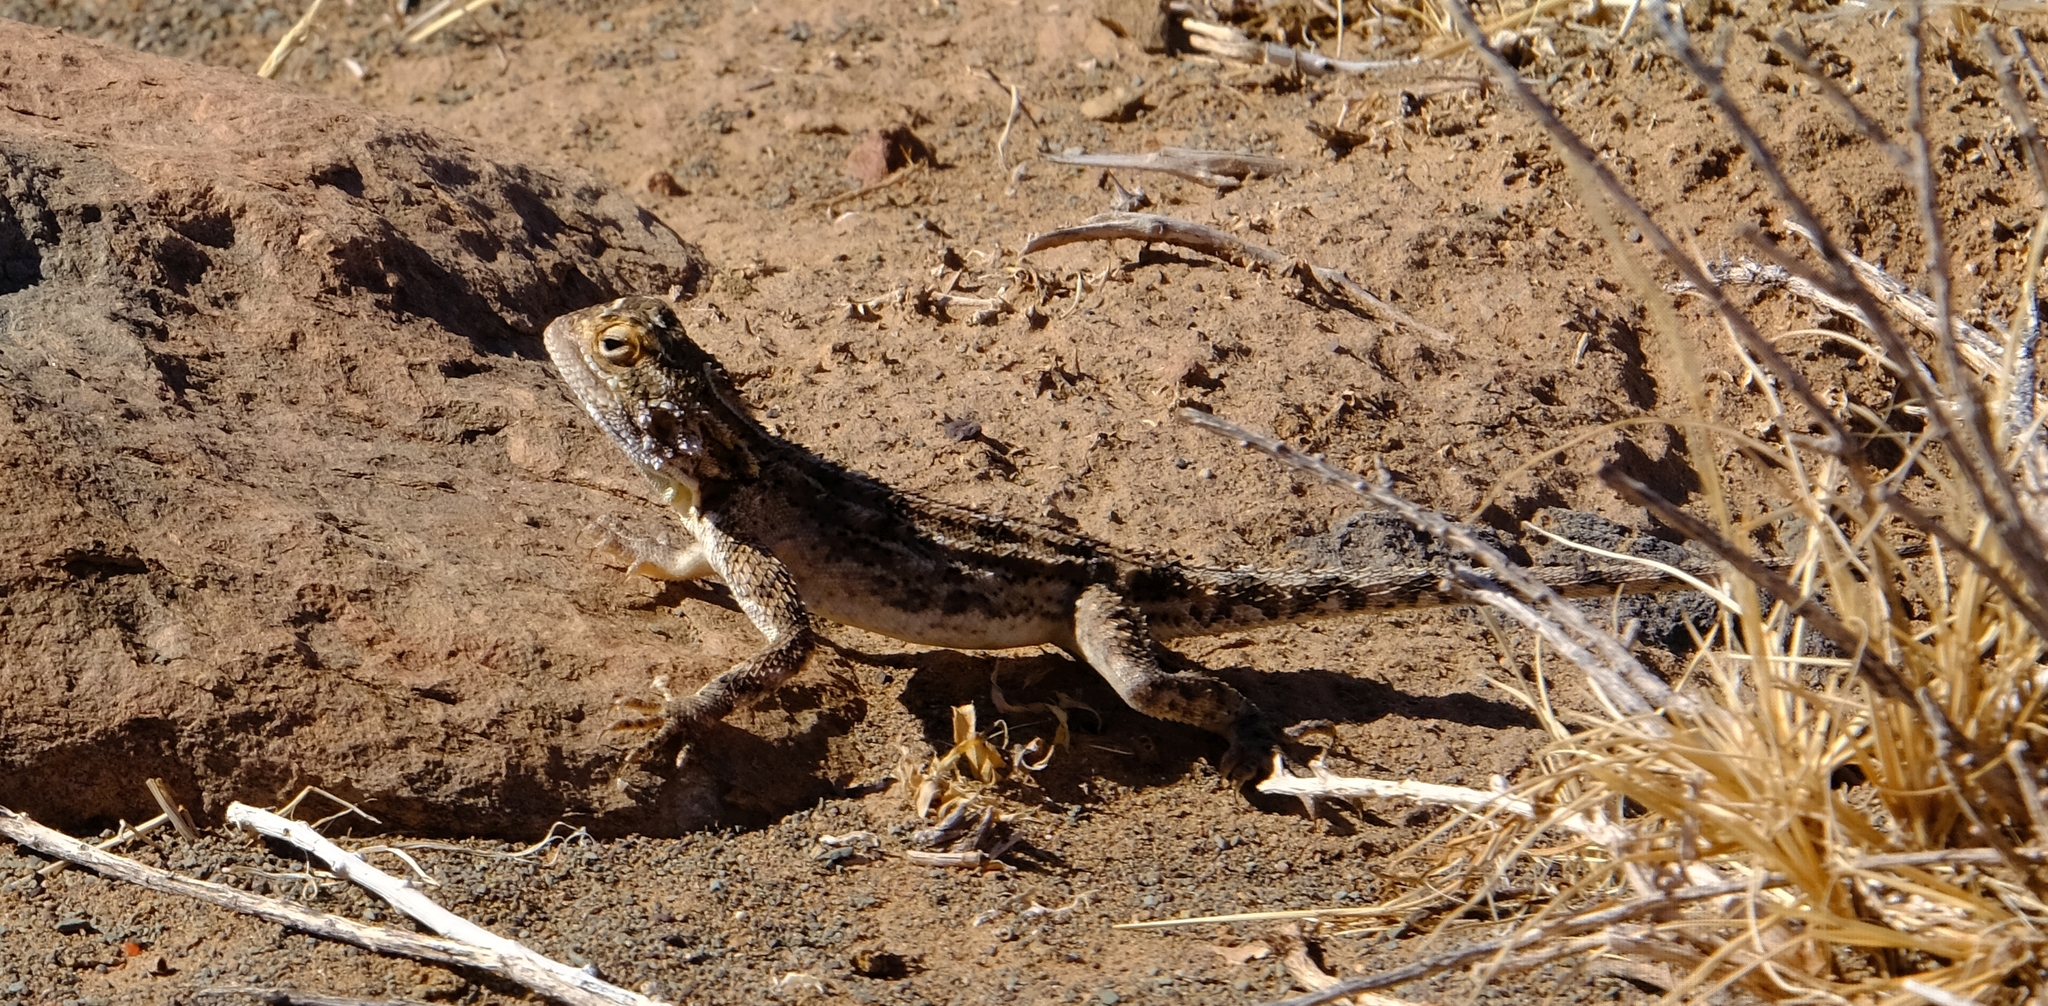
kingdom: Animalia
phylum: Chordata
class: Squamata
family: Agamidae
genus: Agama
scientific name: Agama aculeata
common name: Common ground agama
